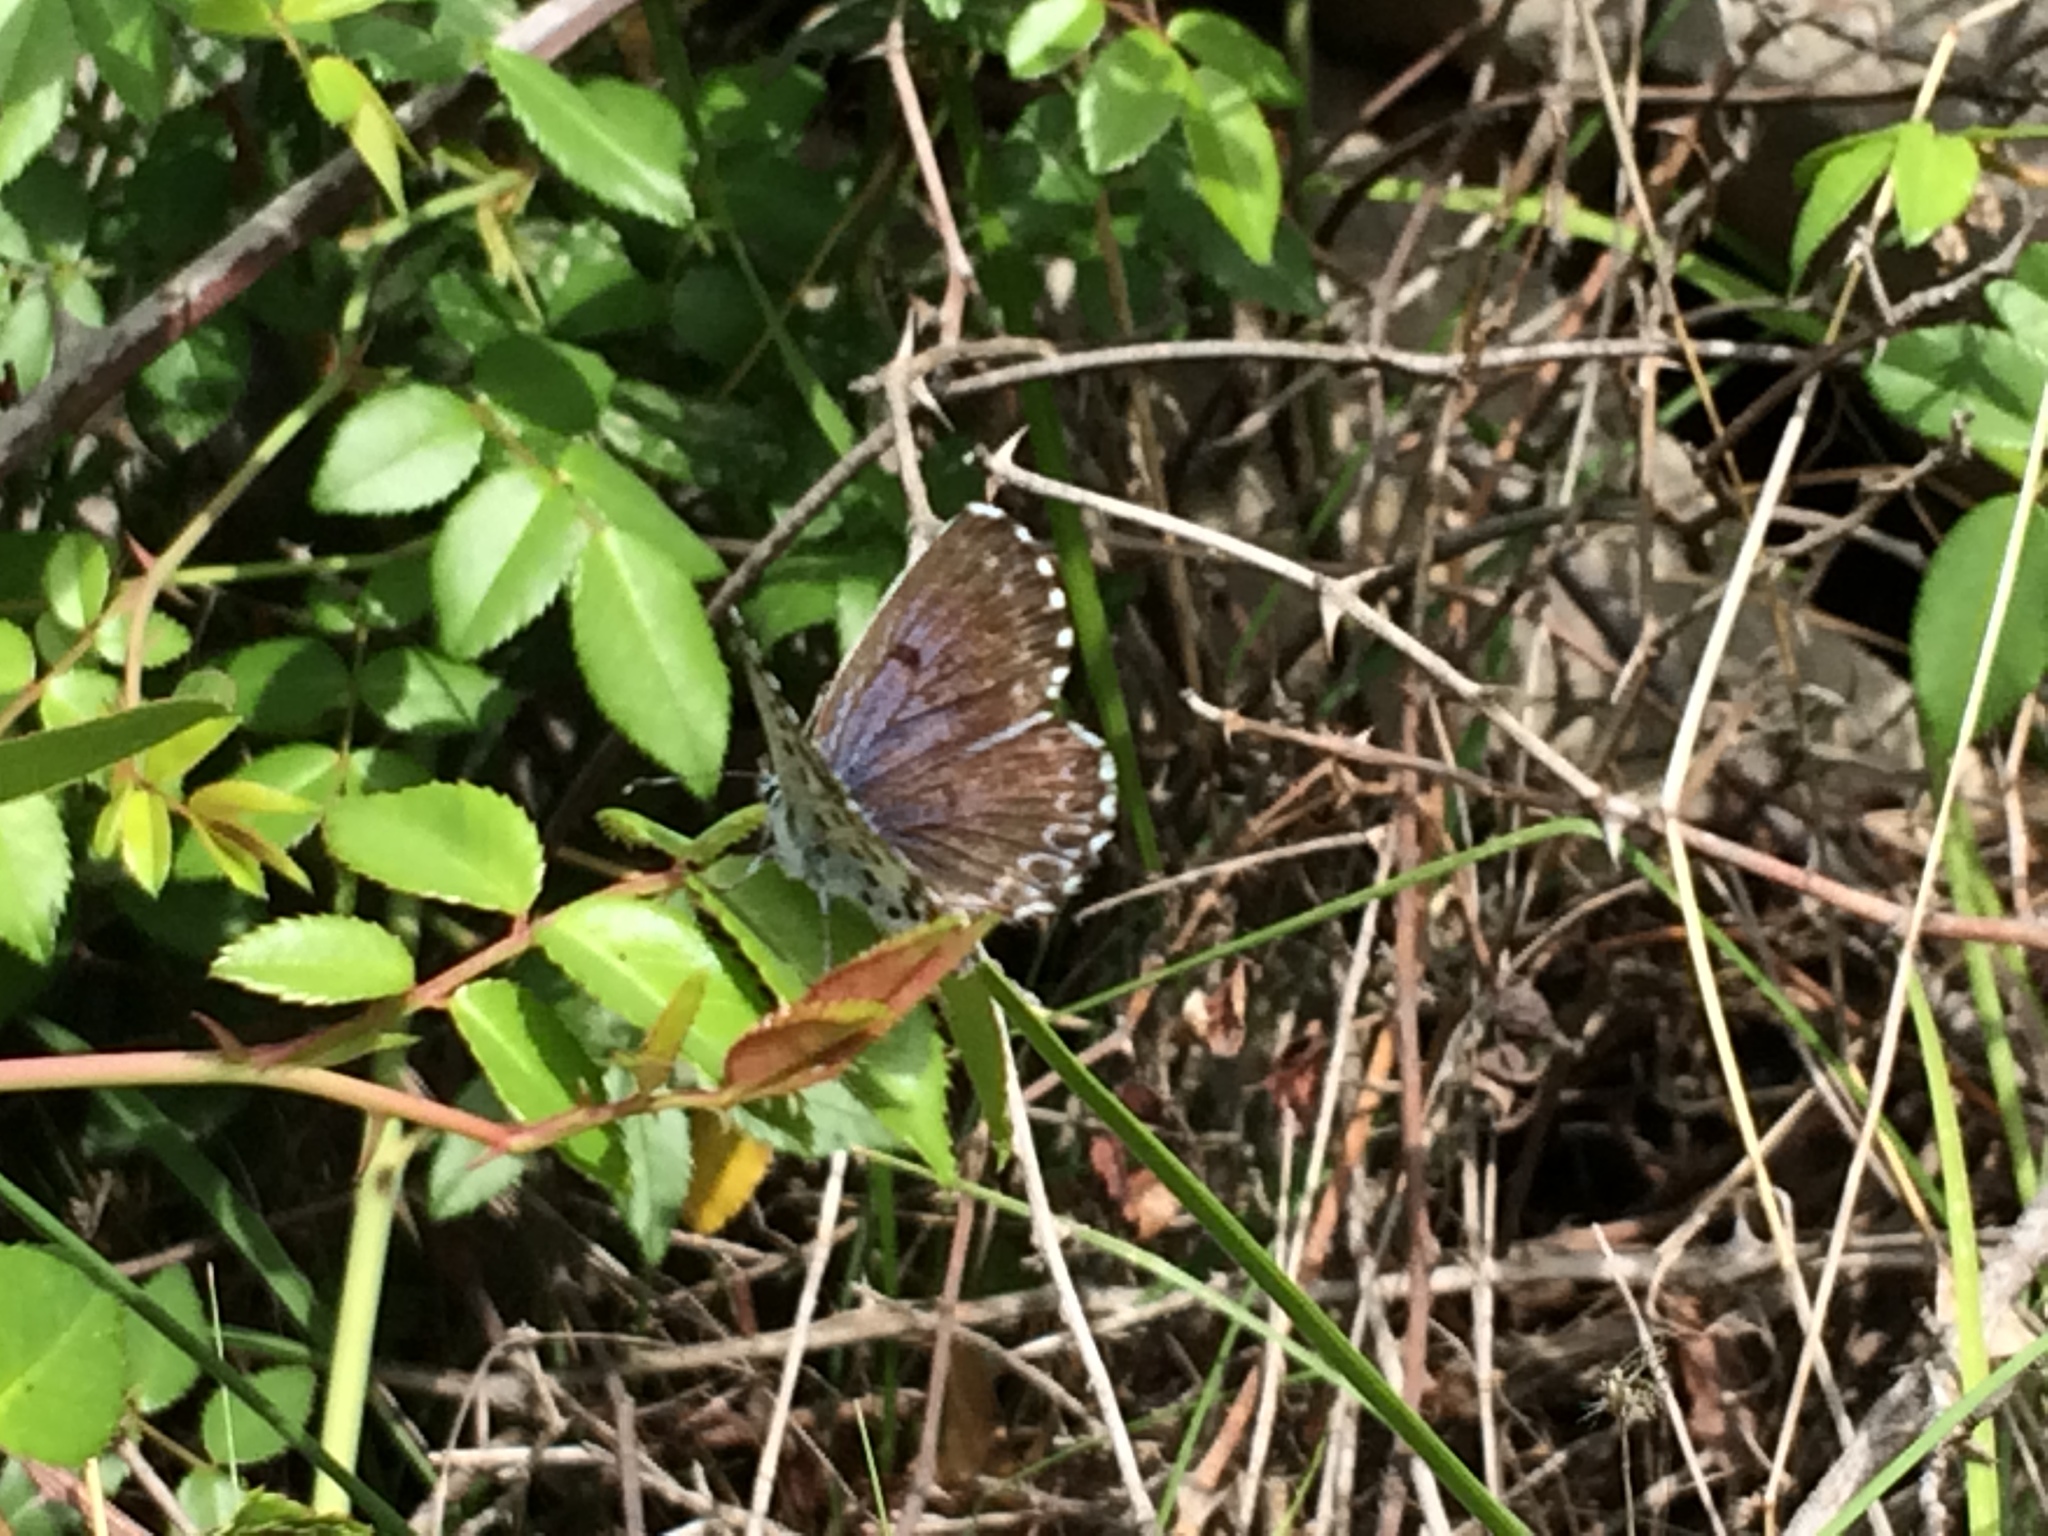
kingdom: Animalia
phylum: Arthropoda
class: Insecta
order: Lepidoptera
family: Lycaenidae
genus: Scolitantides
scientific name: Scolitantides orion
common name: Chequered blue
